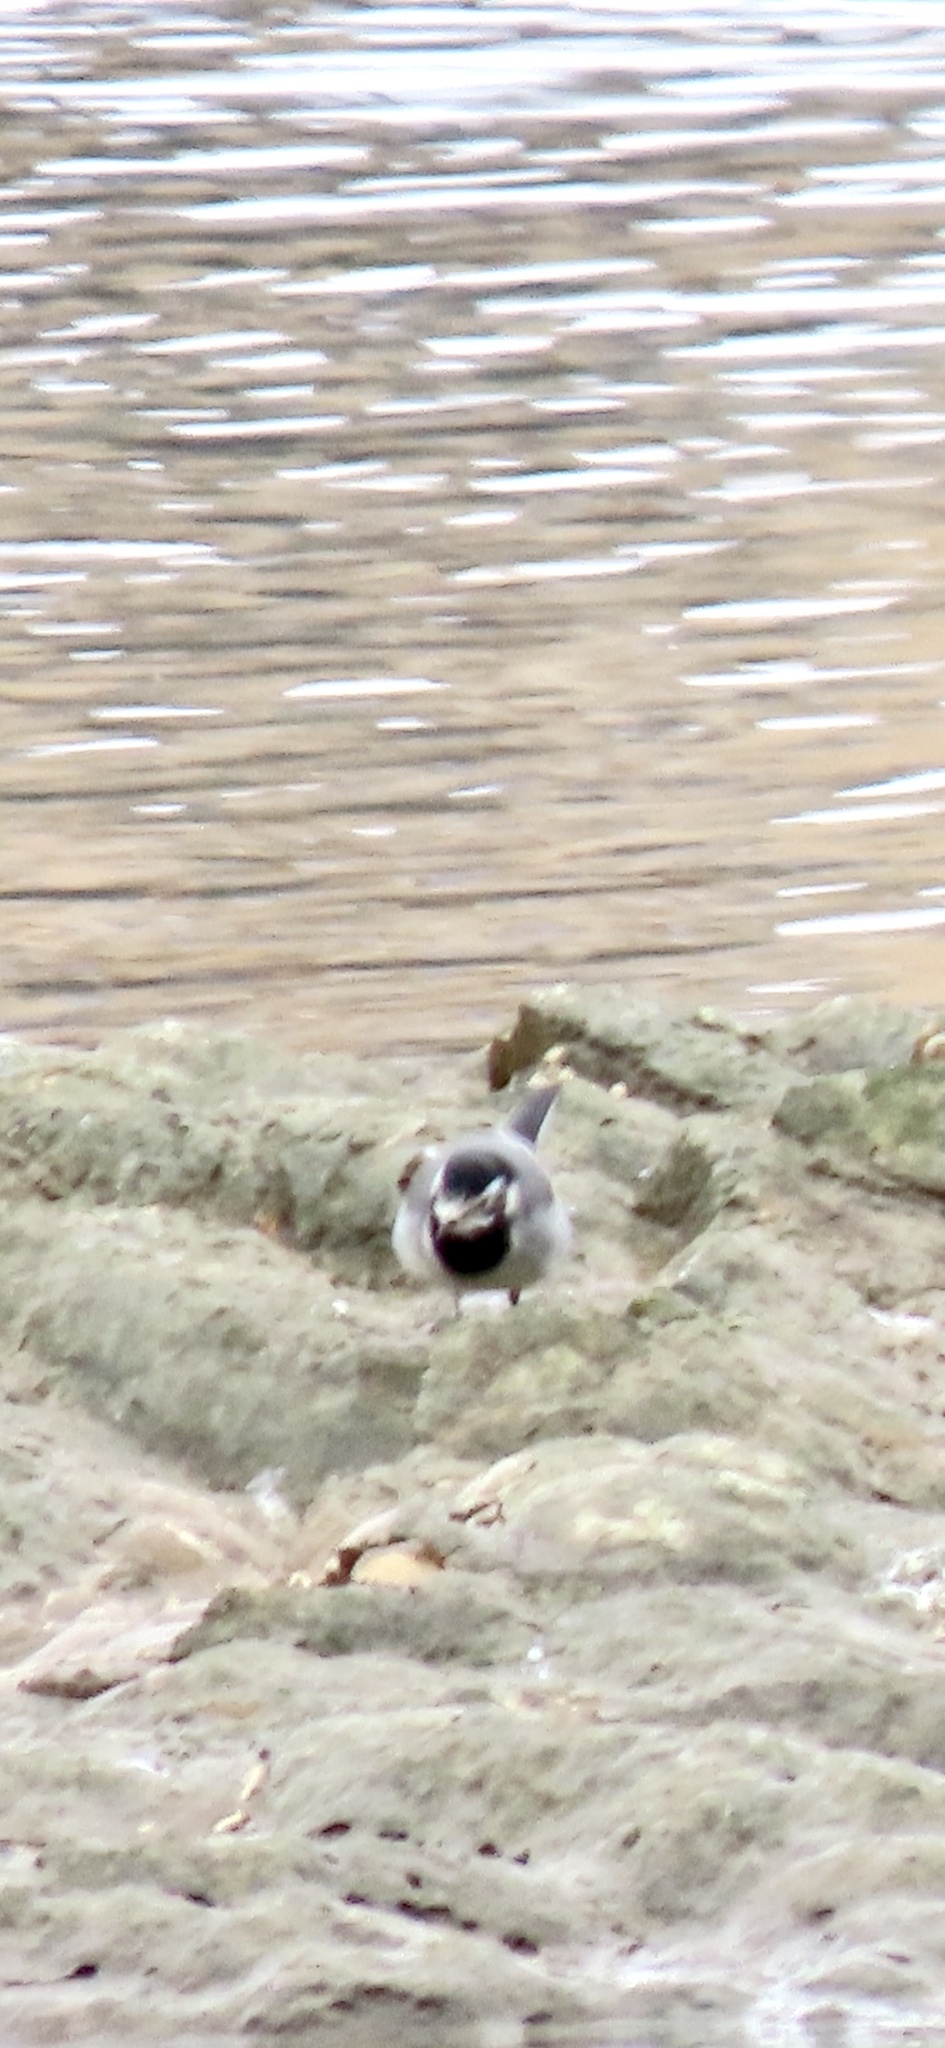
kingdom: Animalia
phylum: Chordata
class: Aves
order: Passeriformes
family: Motacillidae
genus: Motacilla
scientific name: Motacilla alba
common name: White wagtail
